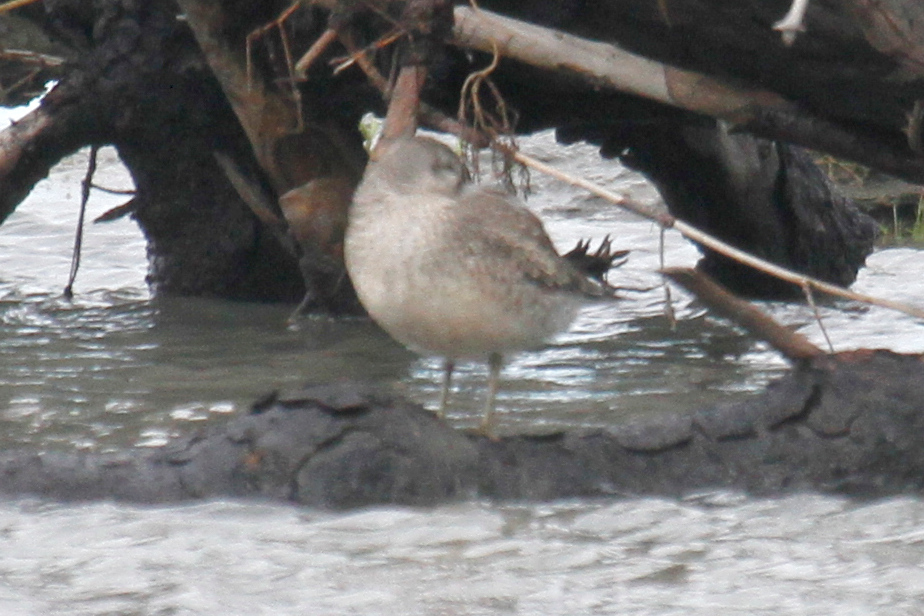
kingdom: Animalia
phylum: Chordata
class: Aves
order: Charadriiformes
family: Scolopacidae
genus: Calidris
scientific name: Calidris canutus
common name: Red knot
